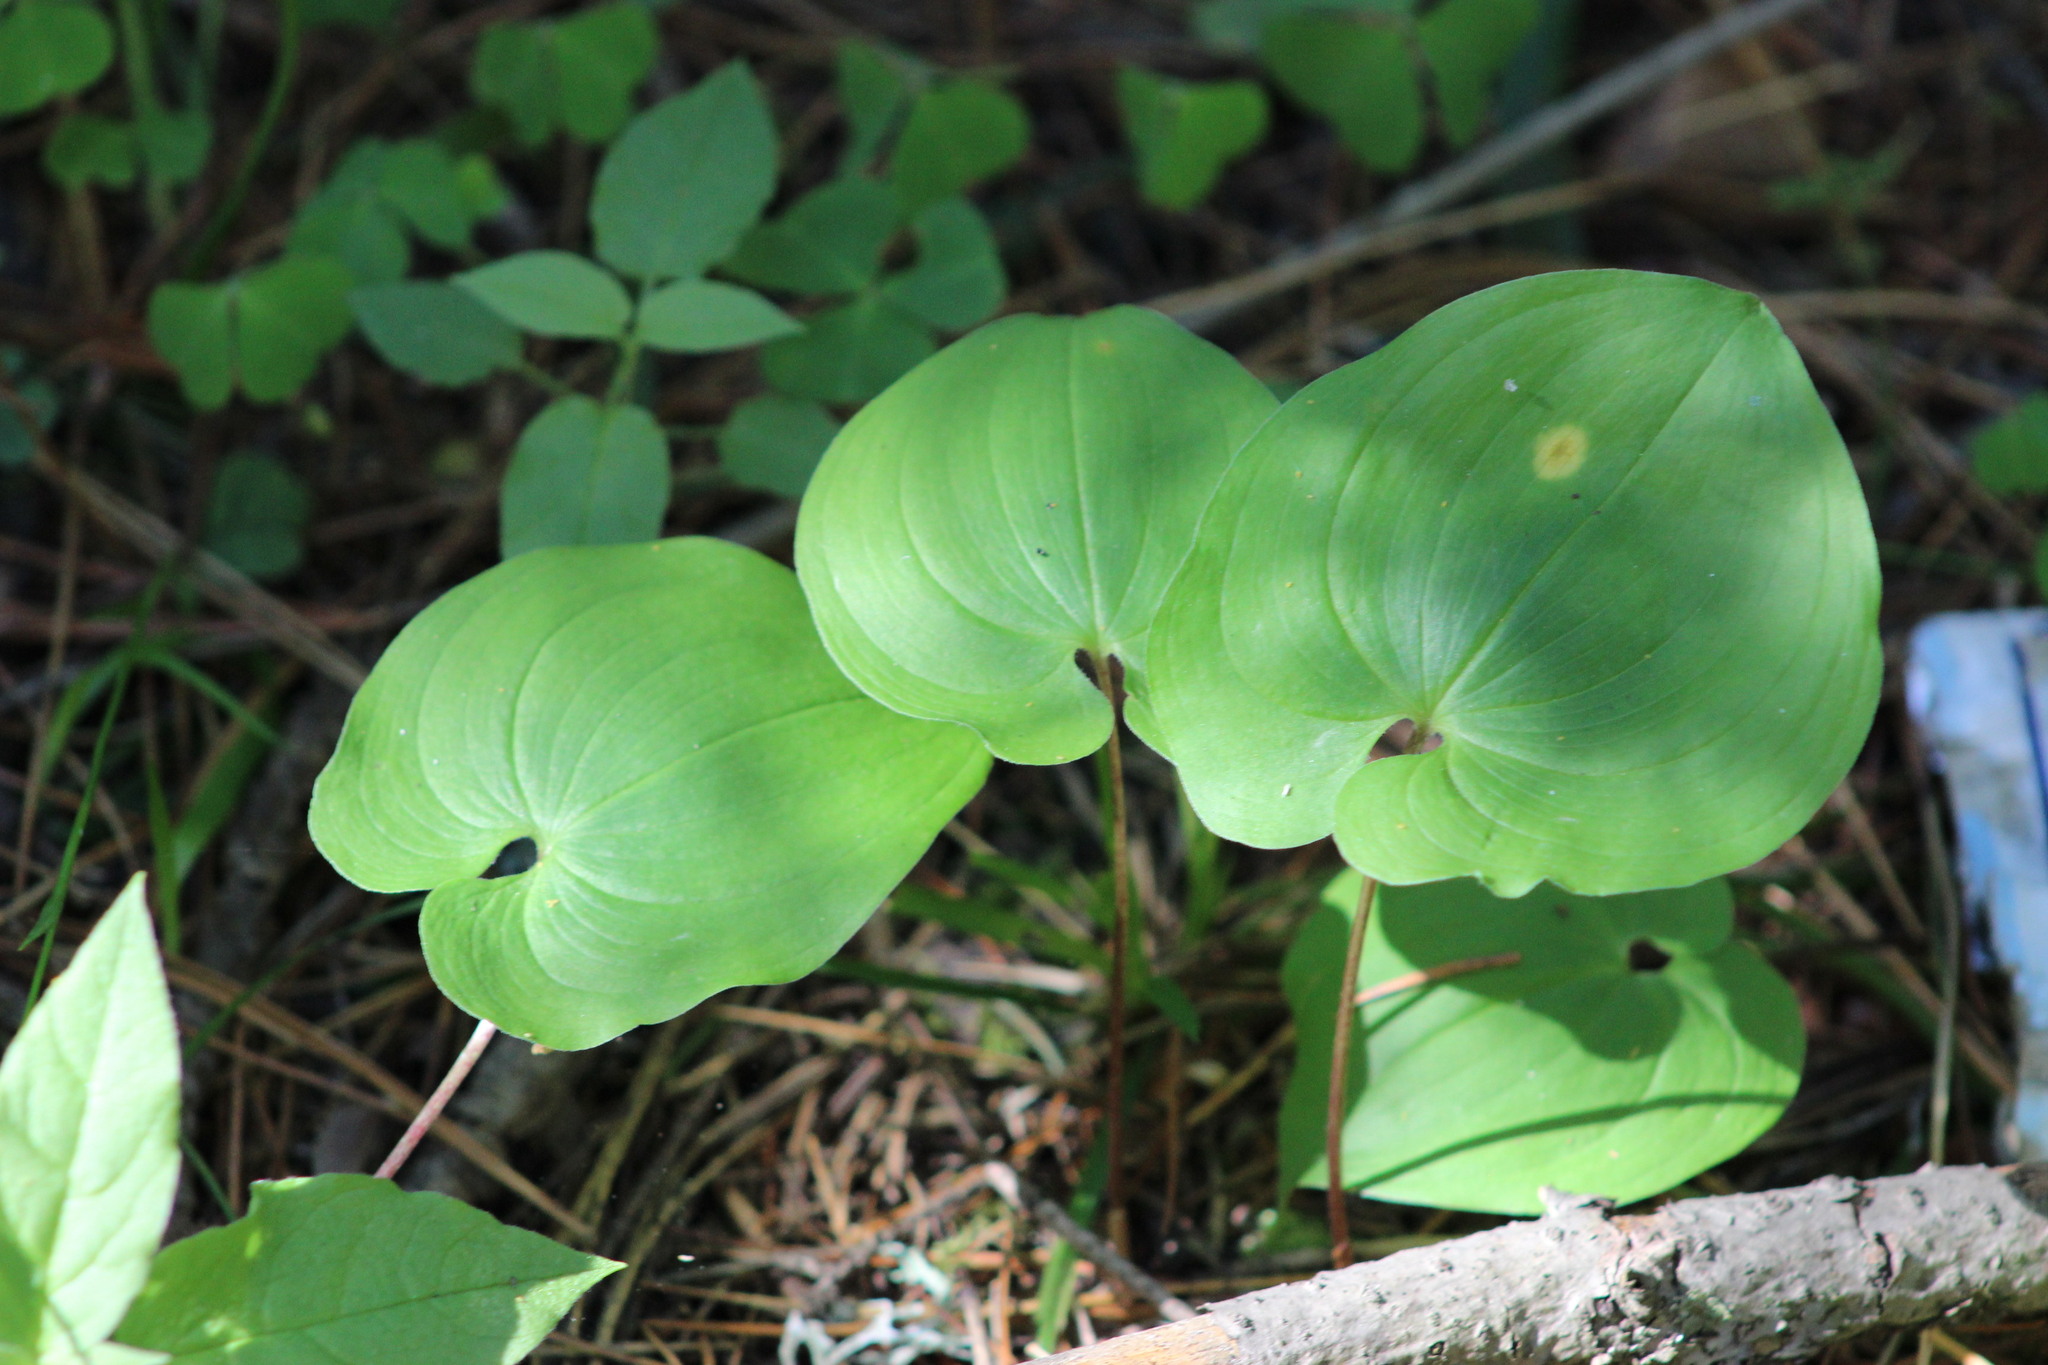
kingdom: Plantae
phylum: Tracheophyta
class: Liliopsida
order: Asparagales
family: Asparagaceae
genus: Maianthemum
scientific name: Maianthemum bifolium
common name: May lily
